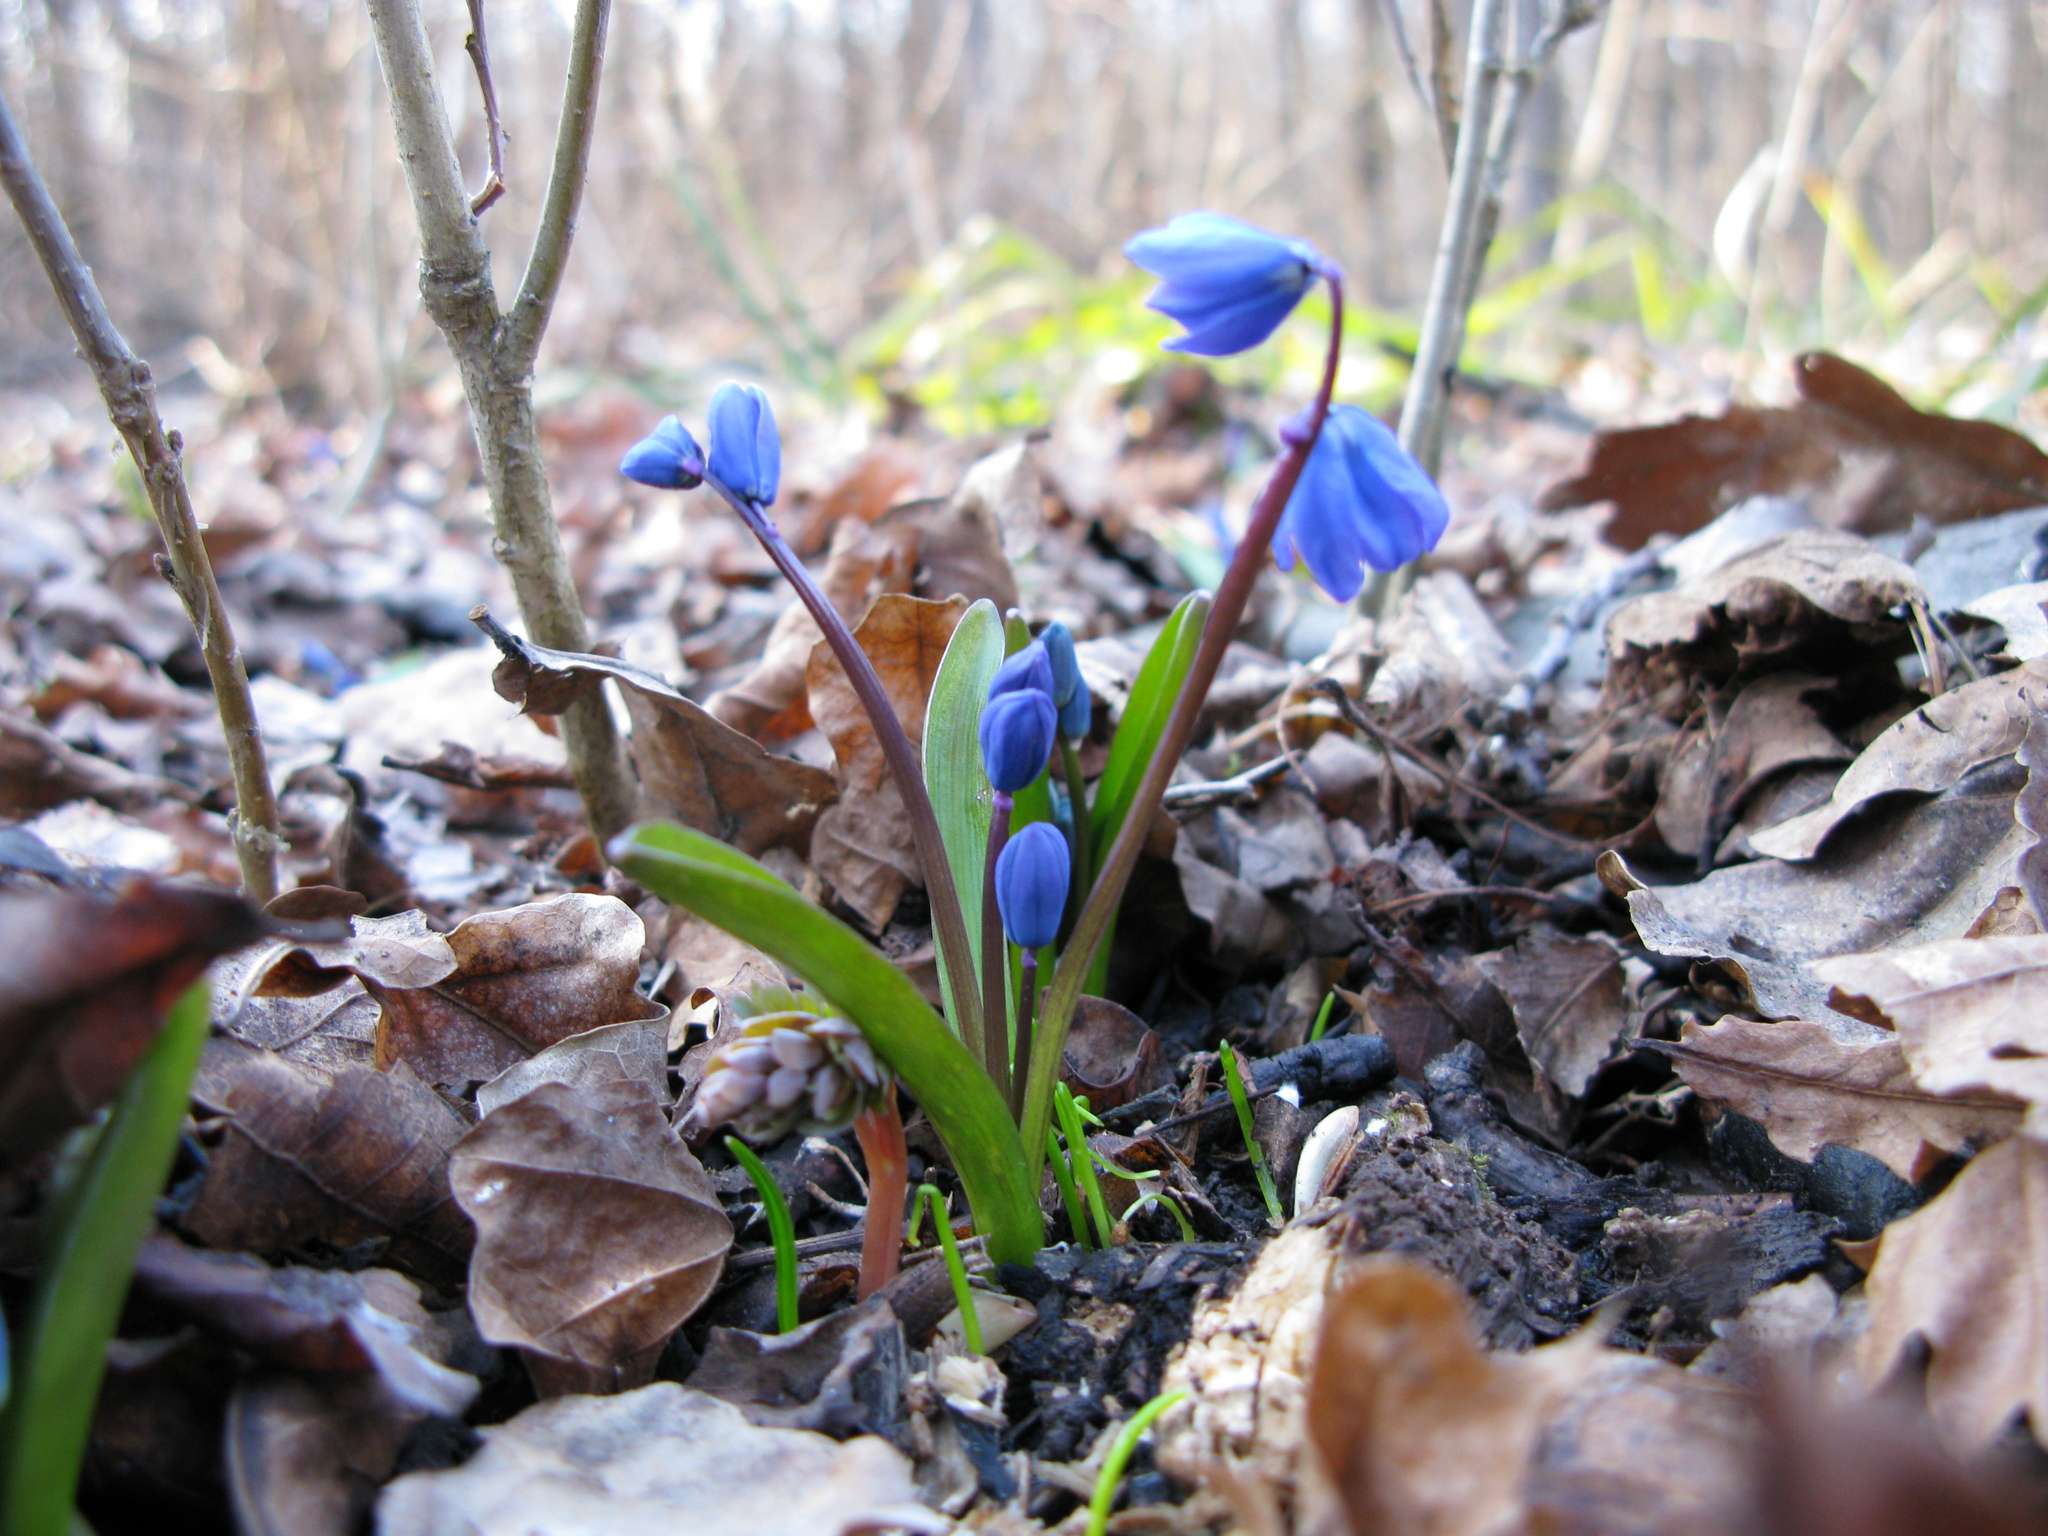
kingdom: Plantae
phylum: Tracheophyta
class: Liliopsida
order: Asparagales
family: Asparagaceae
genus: Scilla
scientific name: Scilla siberica
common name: Siberian squill
